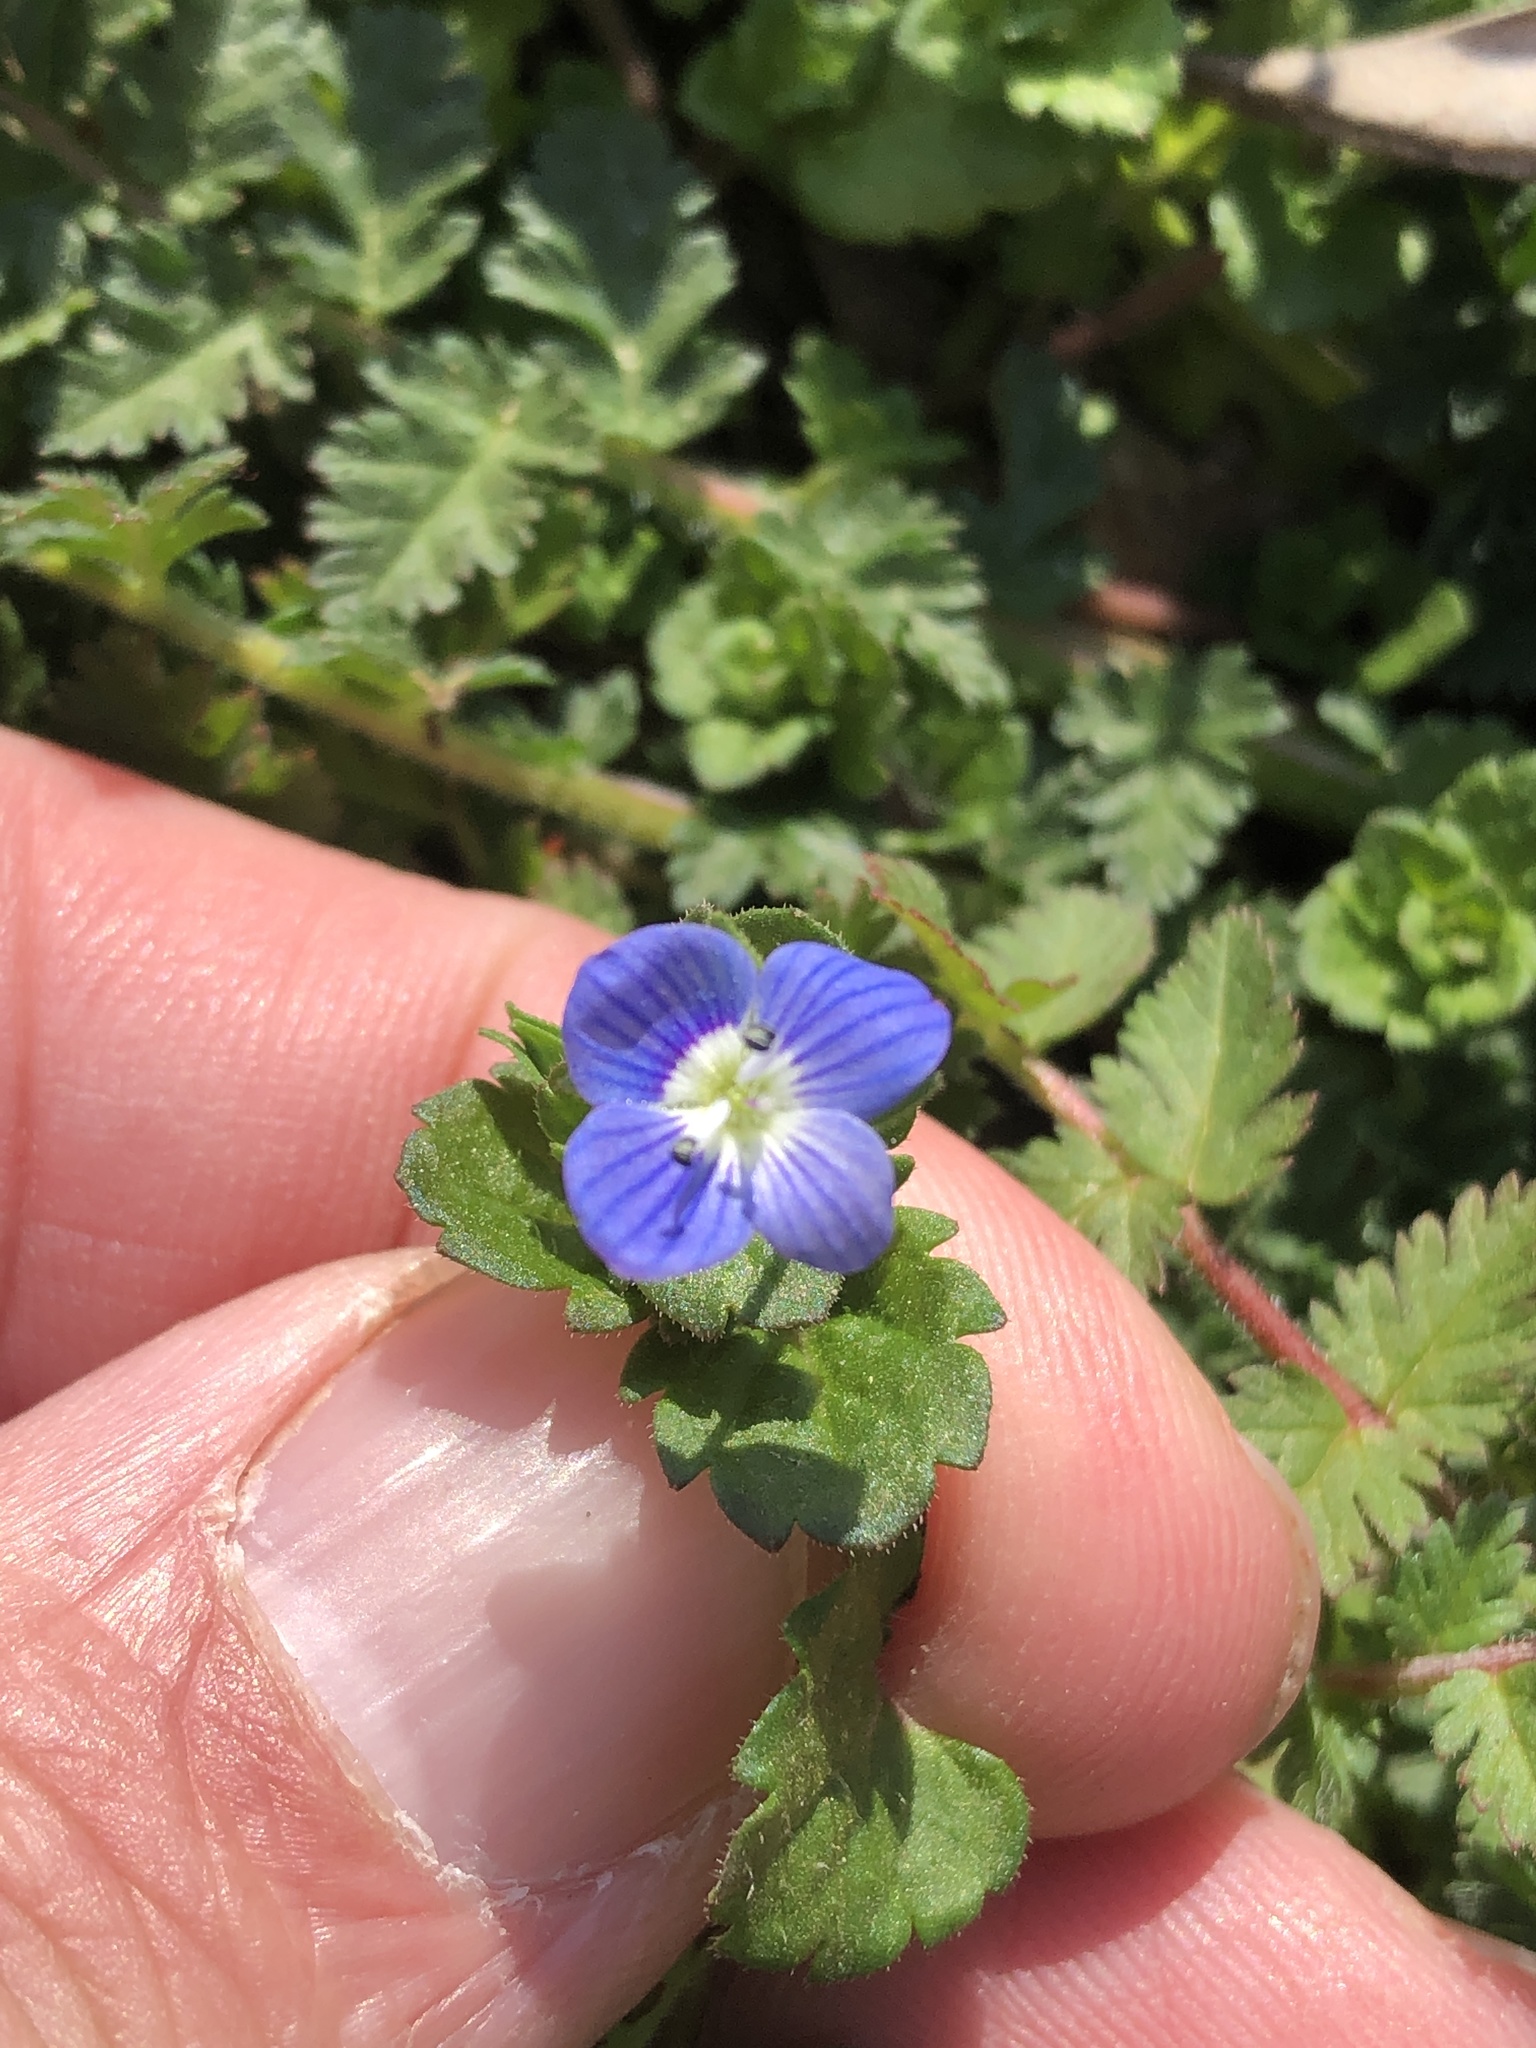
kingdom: Plantae
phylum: Tracheophyta
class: Magnoliopsida
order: Lamiales
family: Plantaginaceae
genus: Veronica
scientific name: Veronica persica
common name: Common field-speedwell
